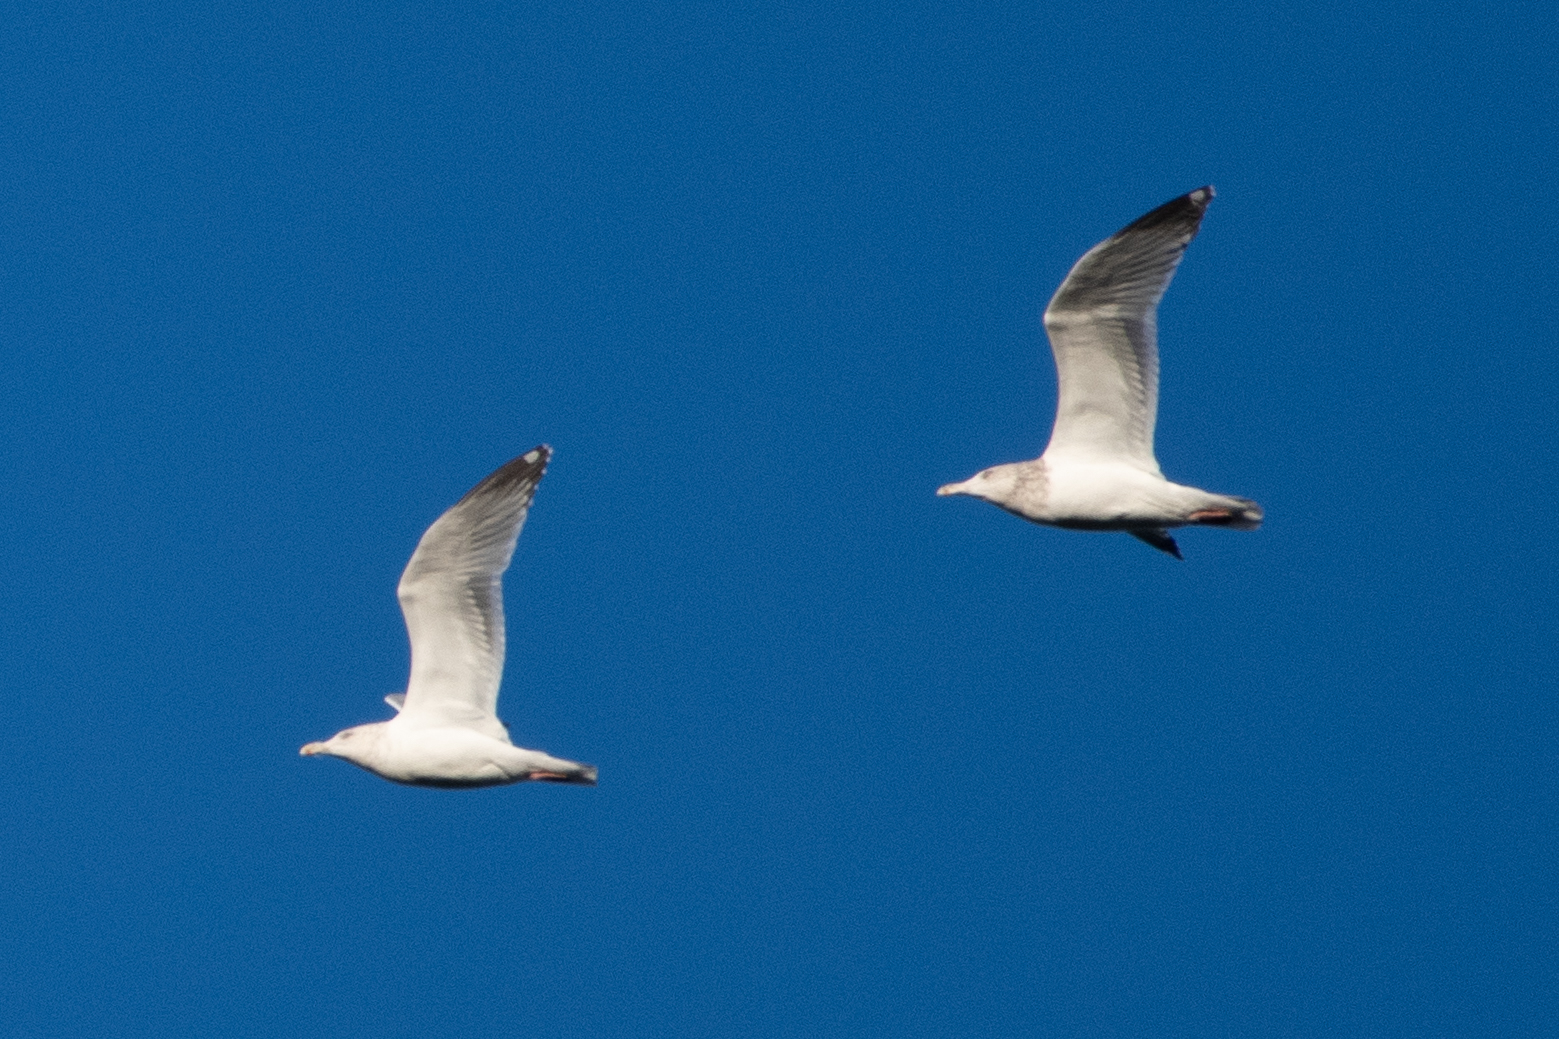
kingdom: Animalia
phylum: Chordata
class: Aves
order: Charadriiformes
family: Laridae
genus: Larus
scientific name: Larus argentatus
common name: Herring gull
